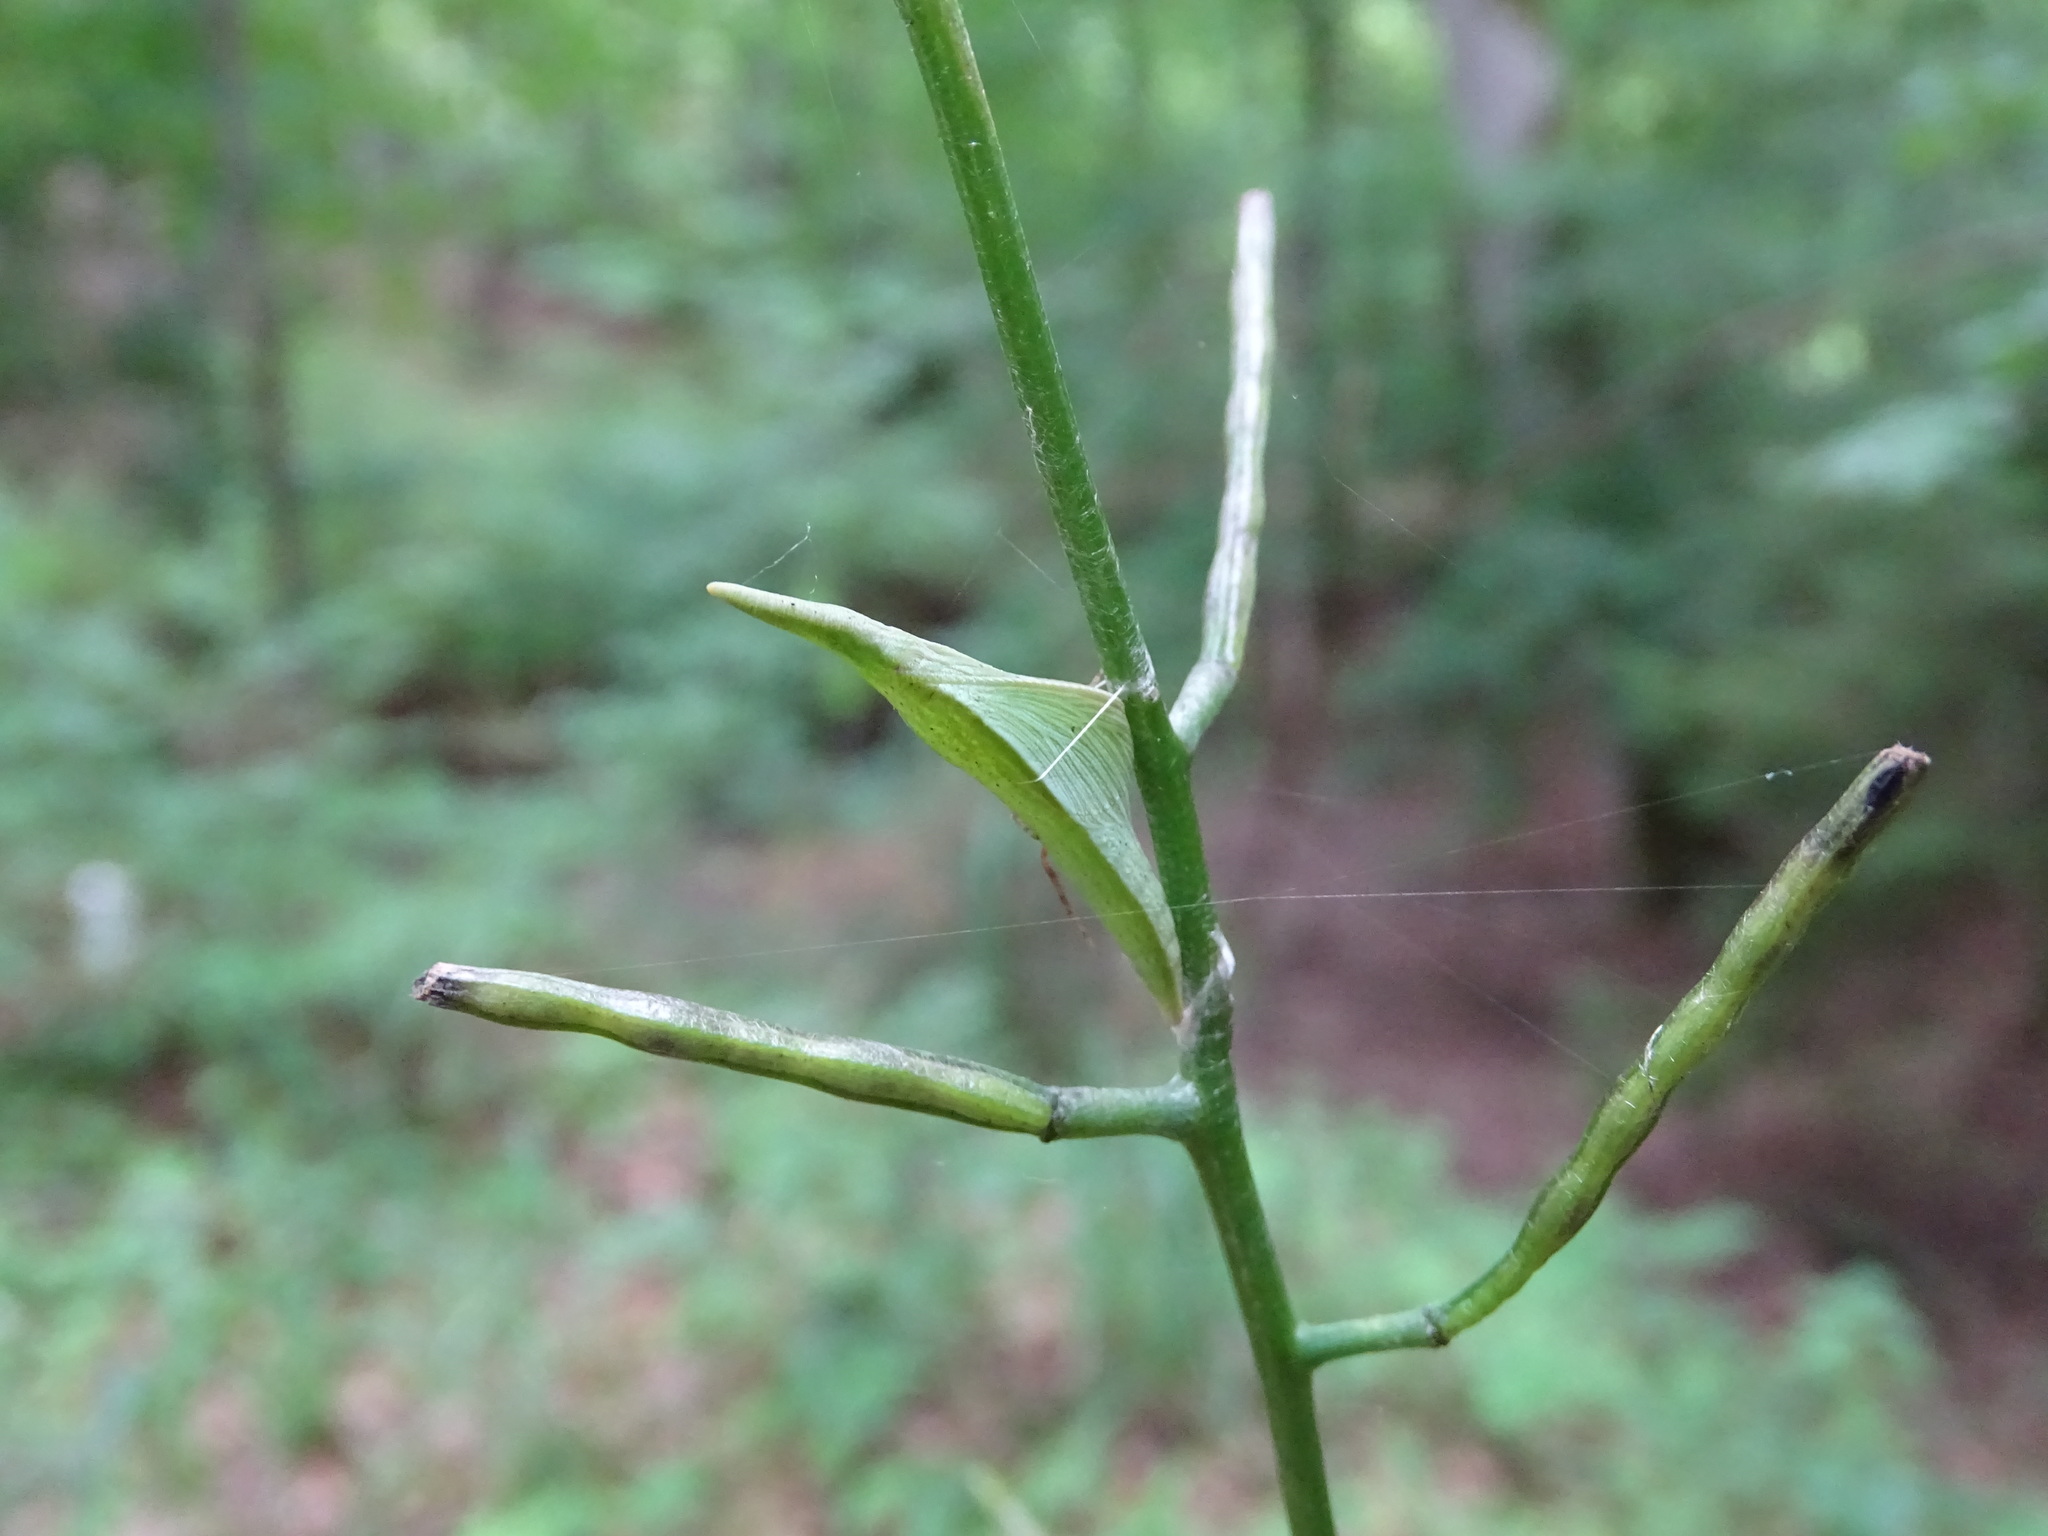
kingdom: Animalia
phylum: Arthropoda
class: Insecta
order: Lepidoptera
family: Pieridae
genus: Anthocharis
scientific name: Anthocharis cardamines
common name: Orange-tip
